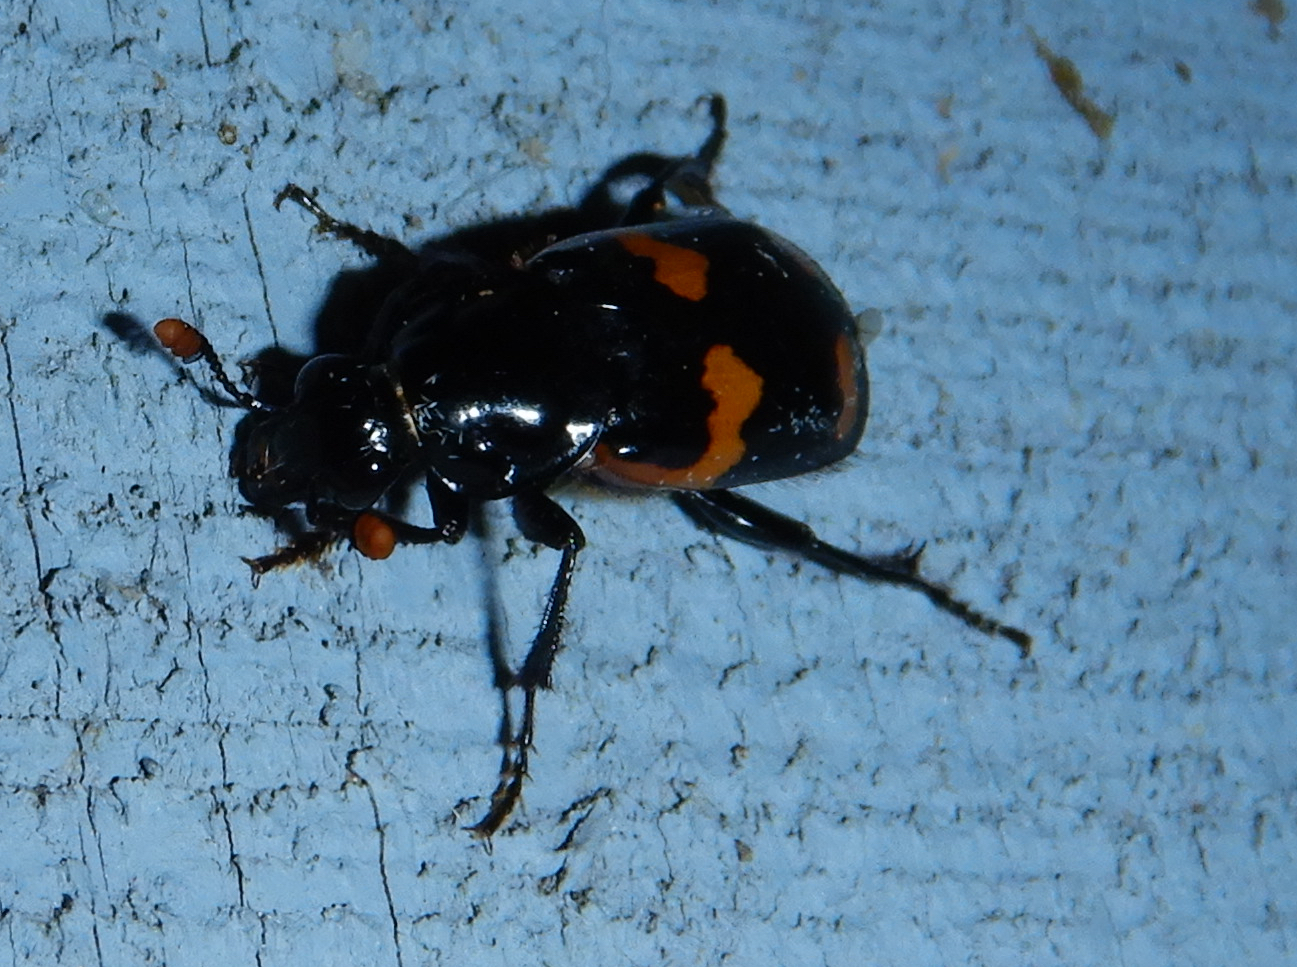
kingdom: Animalia
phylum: Arthropoda
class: Insecta
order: Coleoptera
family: Staphylinidae
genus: Nicrophorus
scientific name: Nicrophorus sayi
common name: Say's burying beetle
